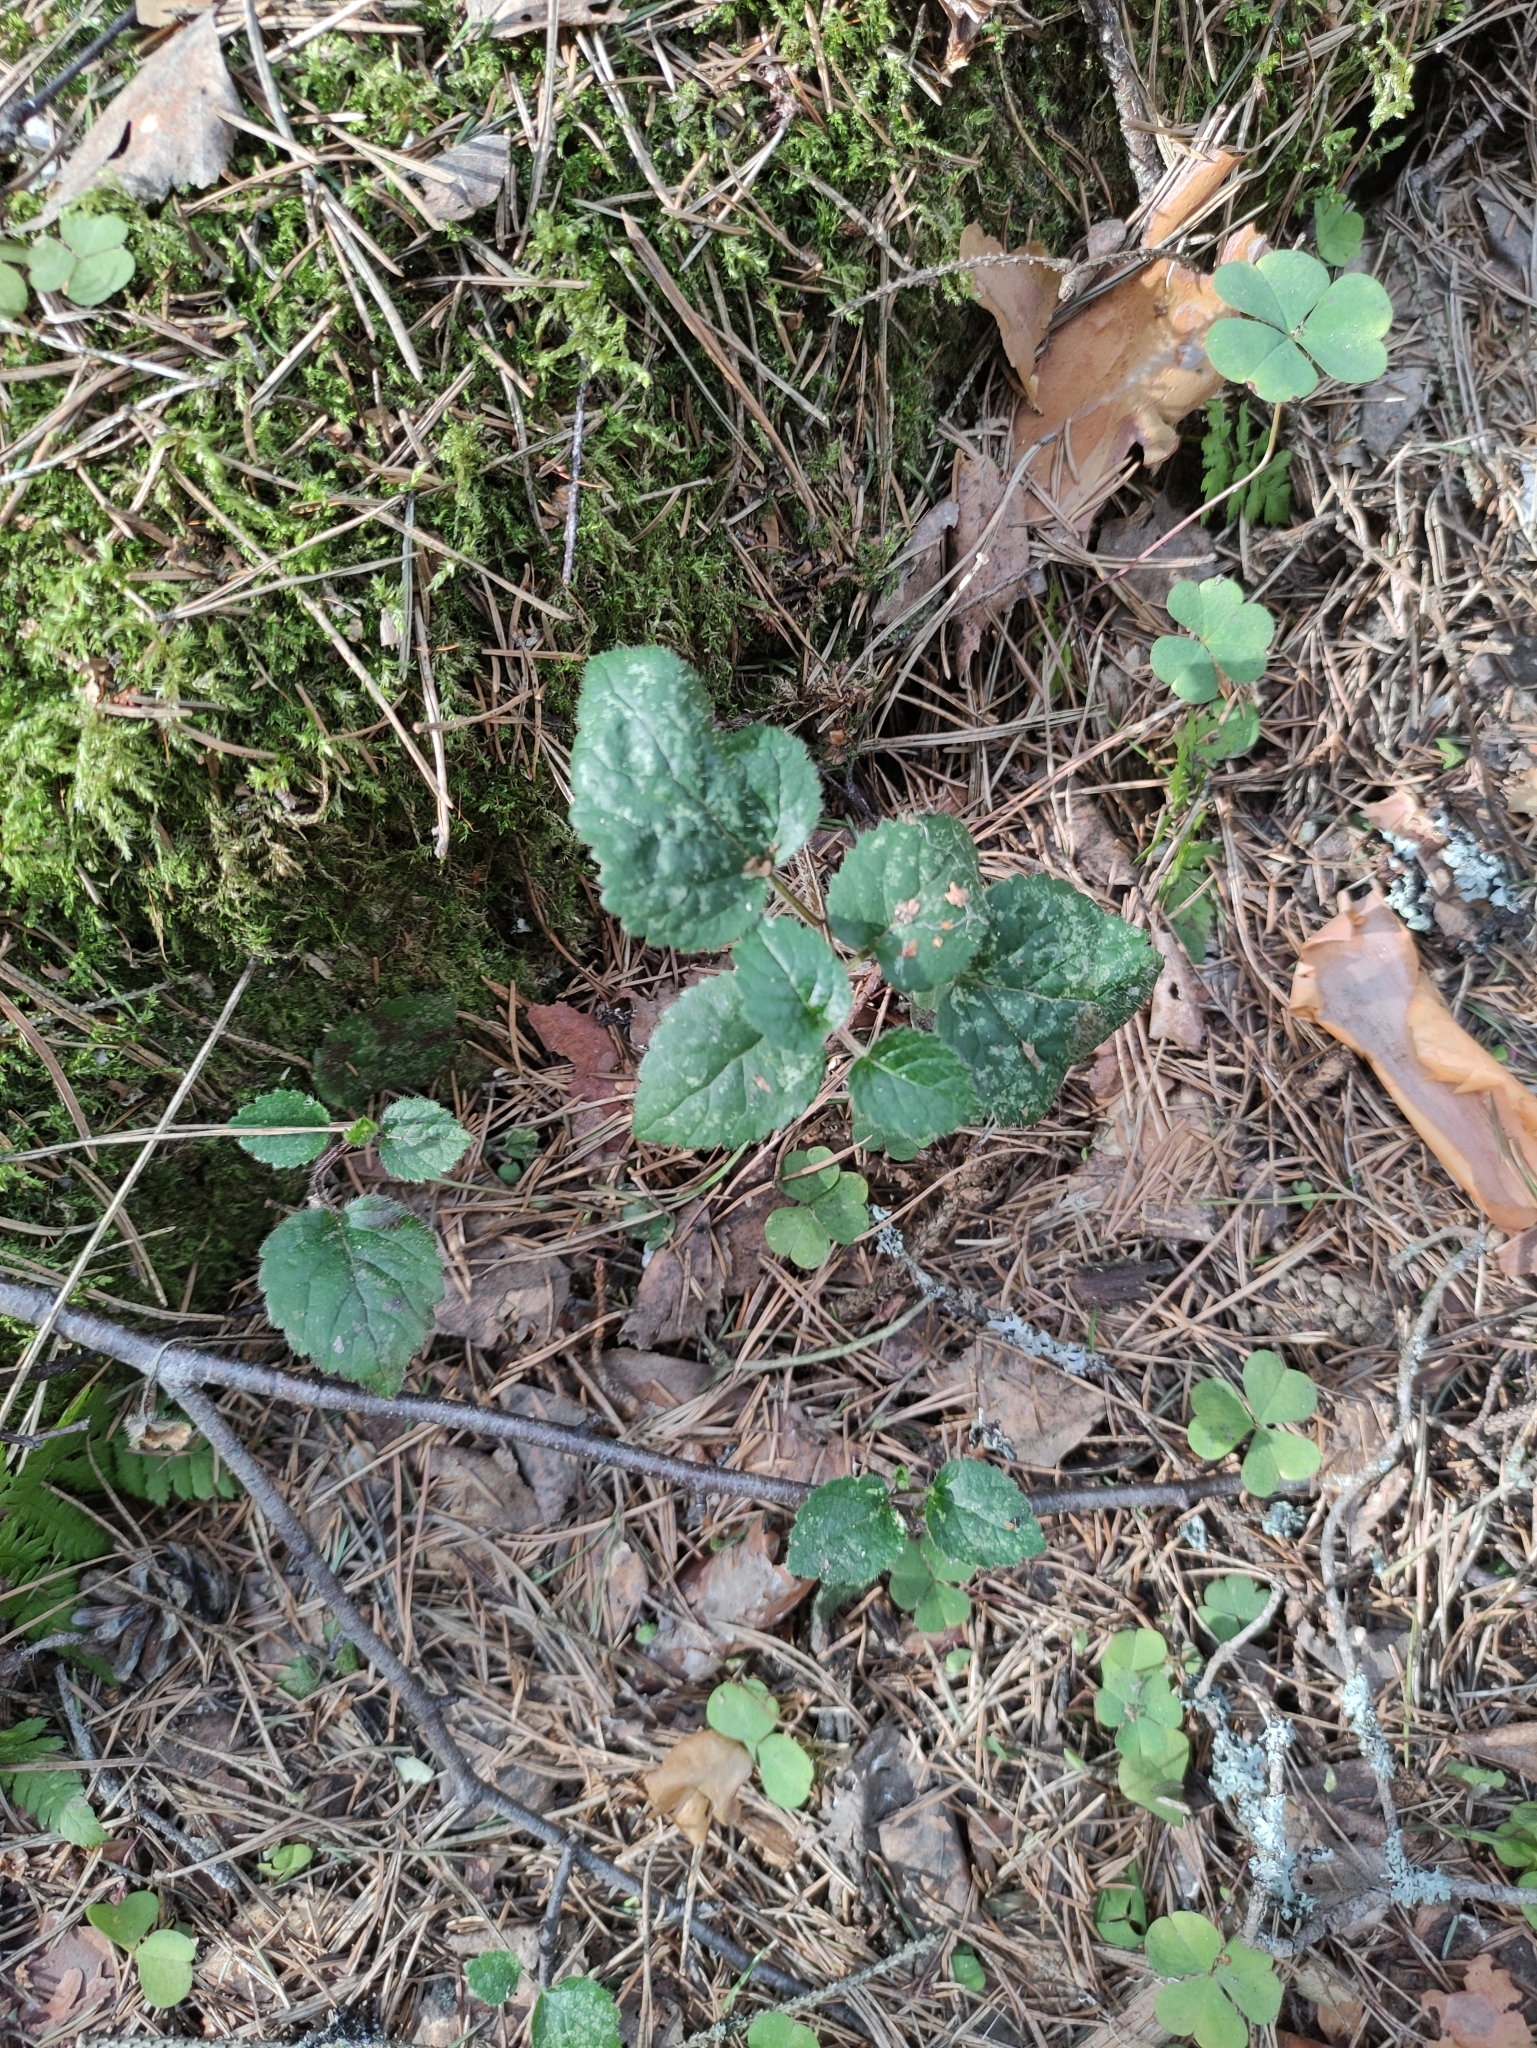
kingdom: Plantae
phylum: Tracheophyta
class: Magnoliopsida
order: Lamiales
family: Lamiaceae
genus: Lamium
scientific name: Lamium galeobdolon
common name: Yellow archangel
